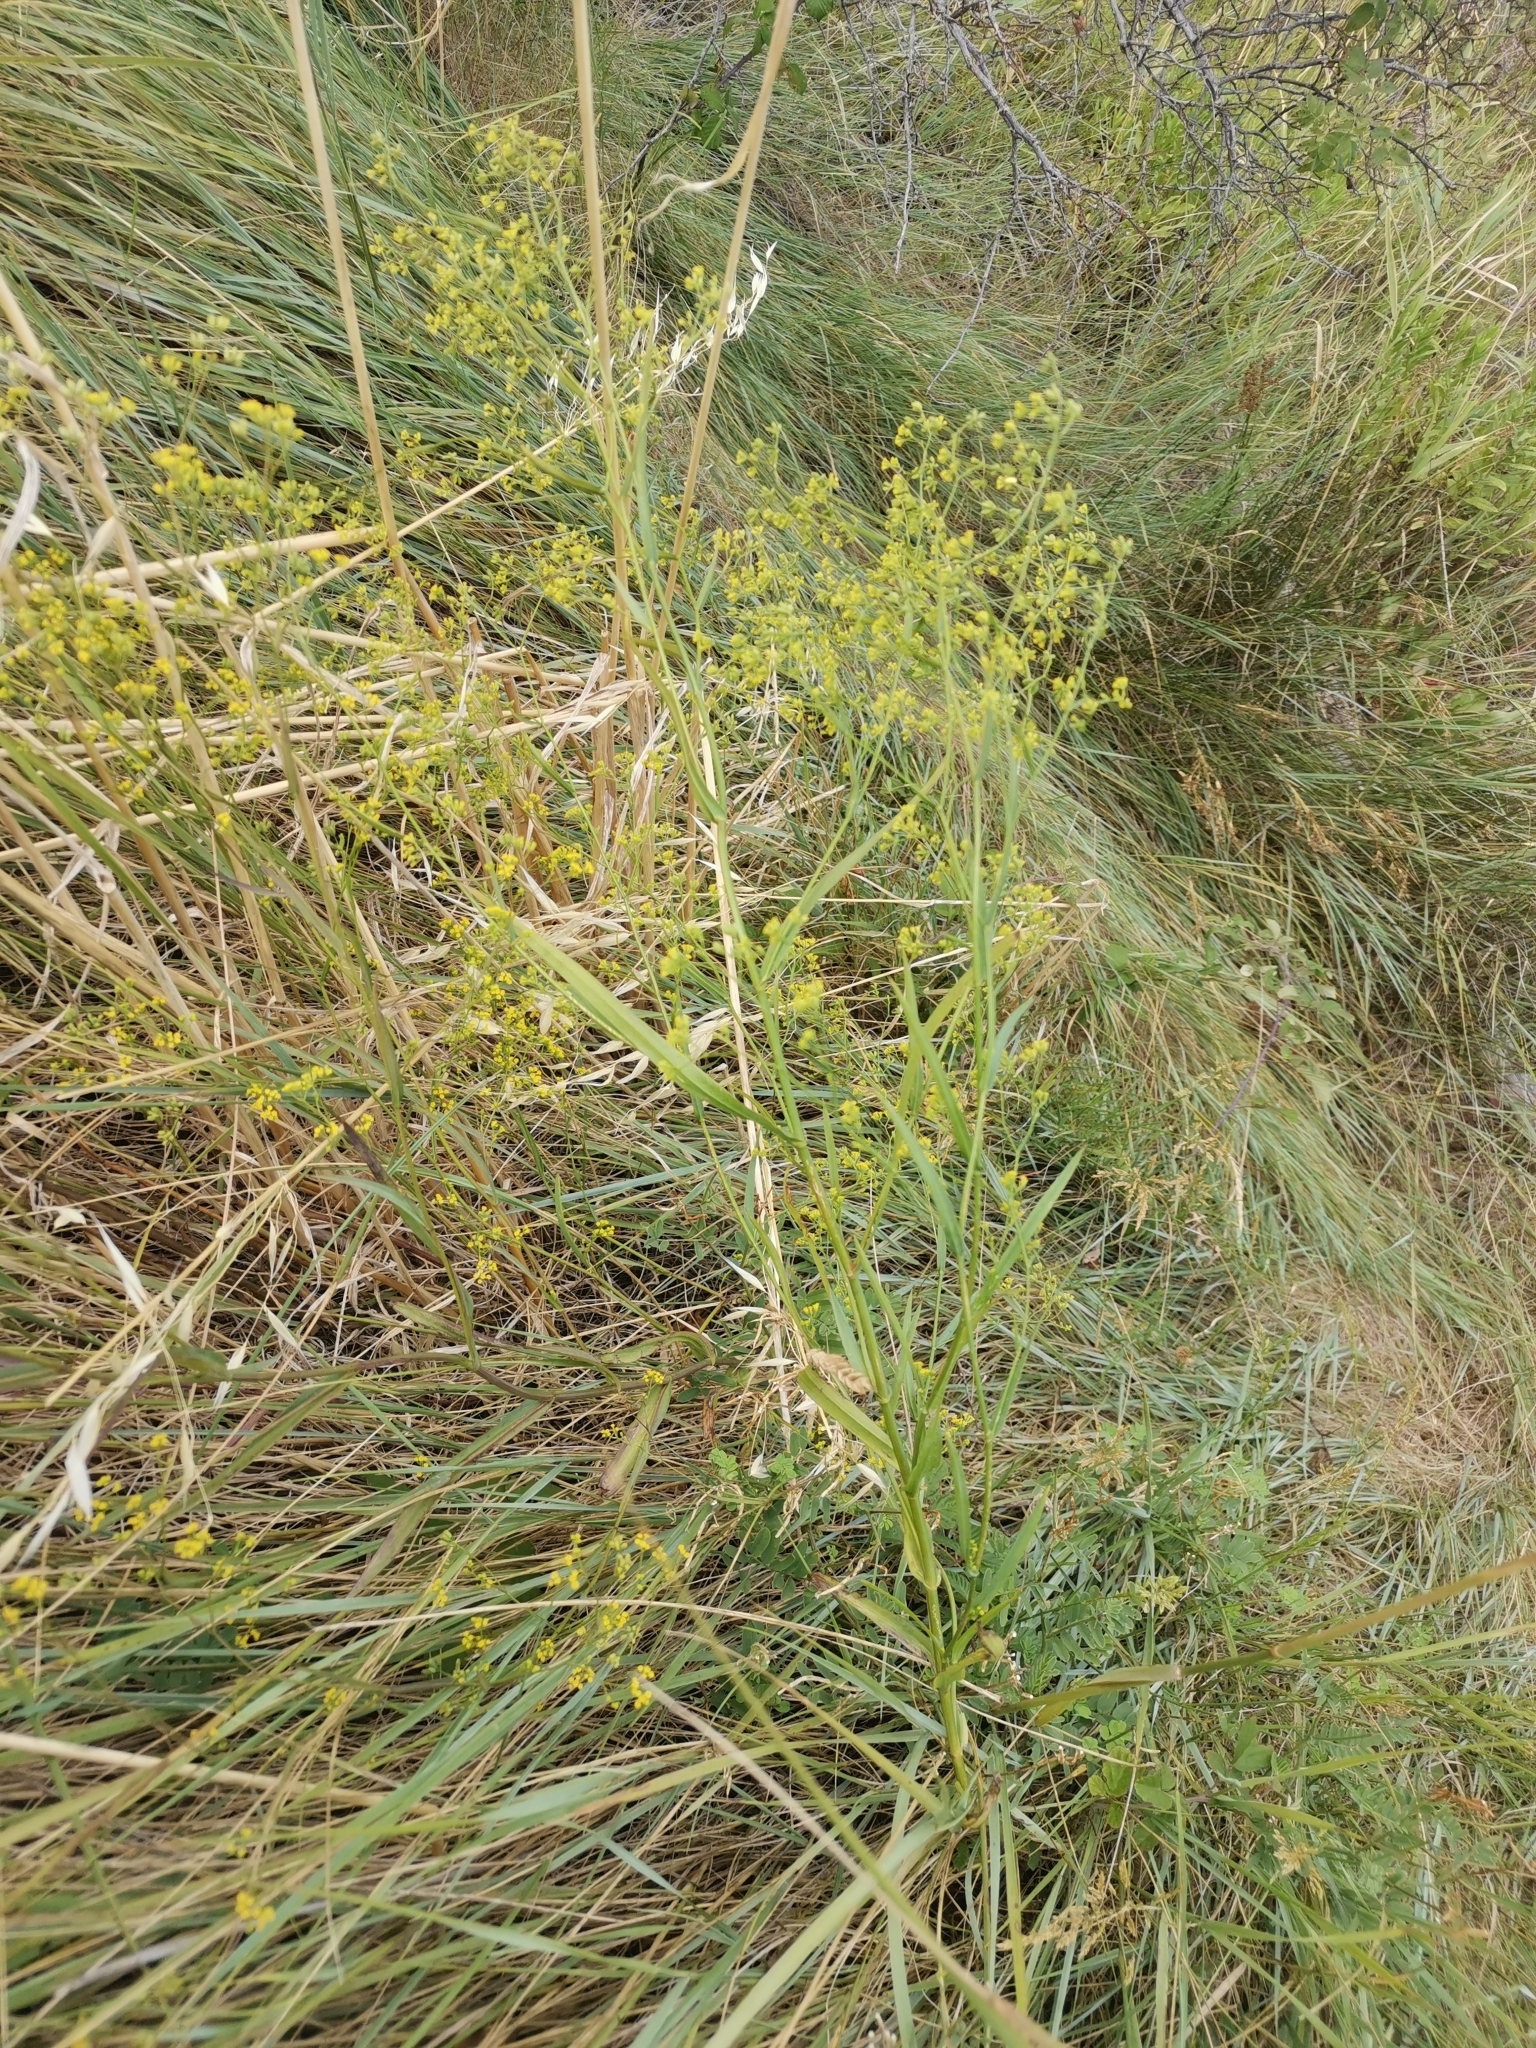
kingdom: Plantae
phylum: Tracheophyta
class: Magnoliopsida
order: Apiales
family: Apiaceae
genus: Bupleurum
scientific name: Bupleurum praealtum
